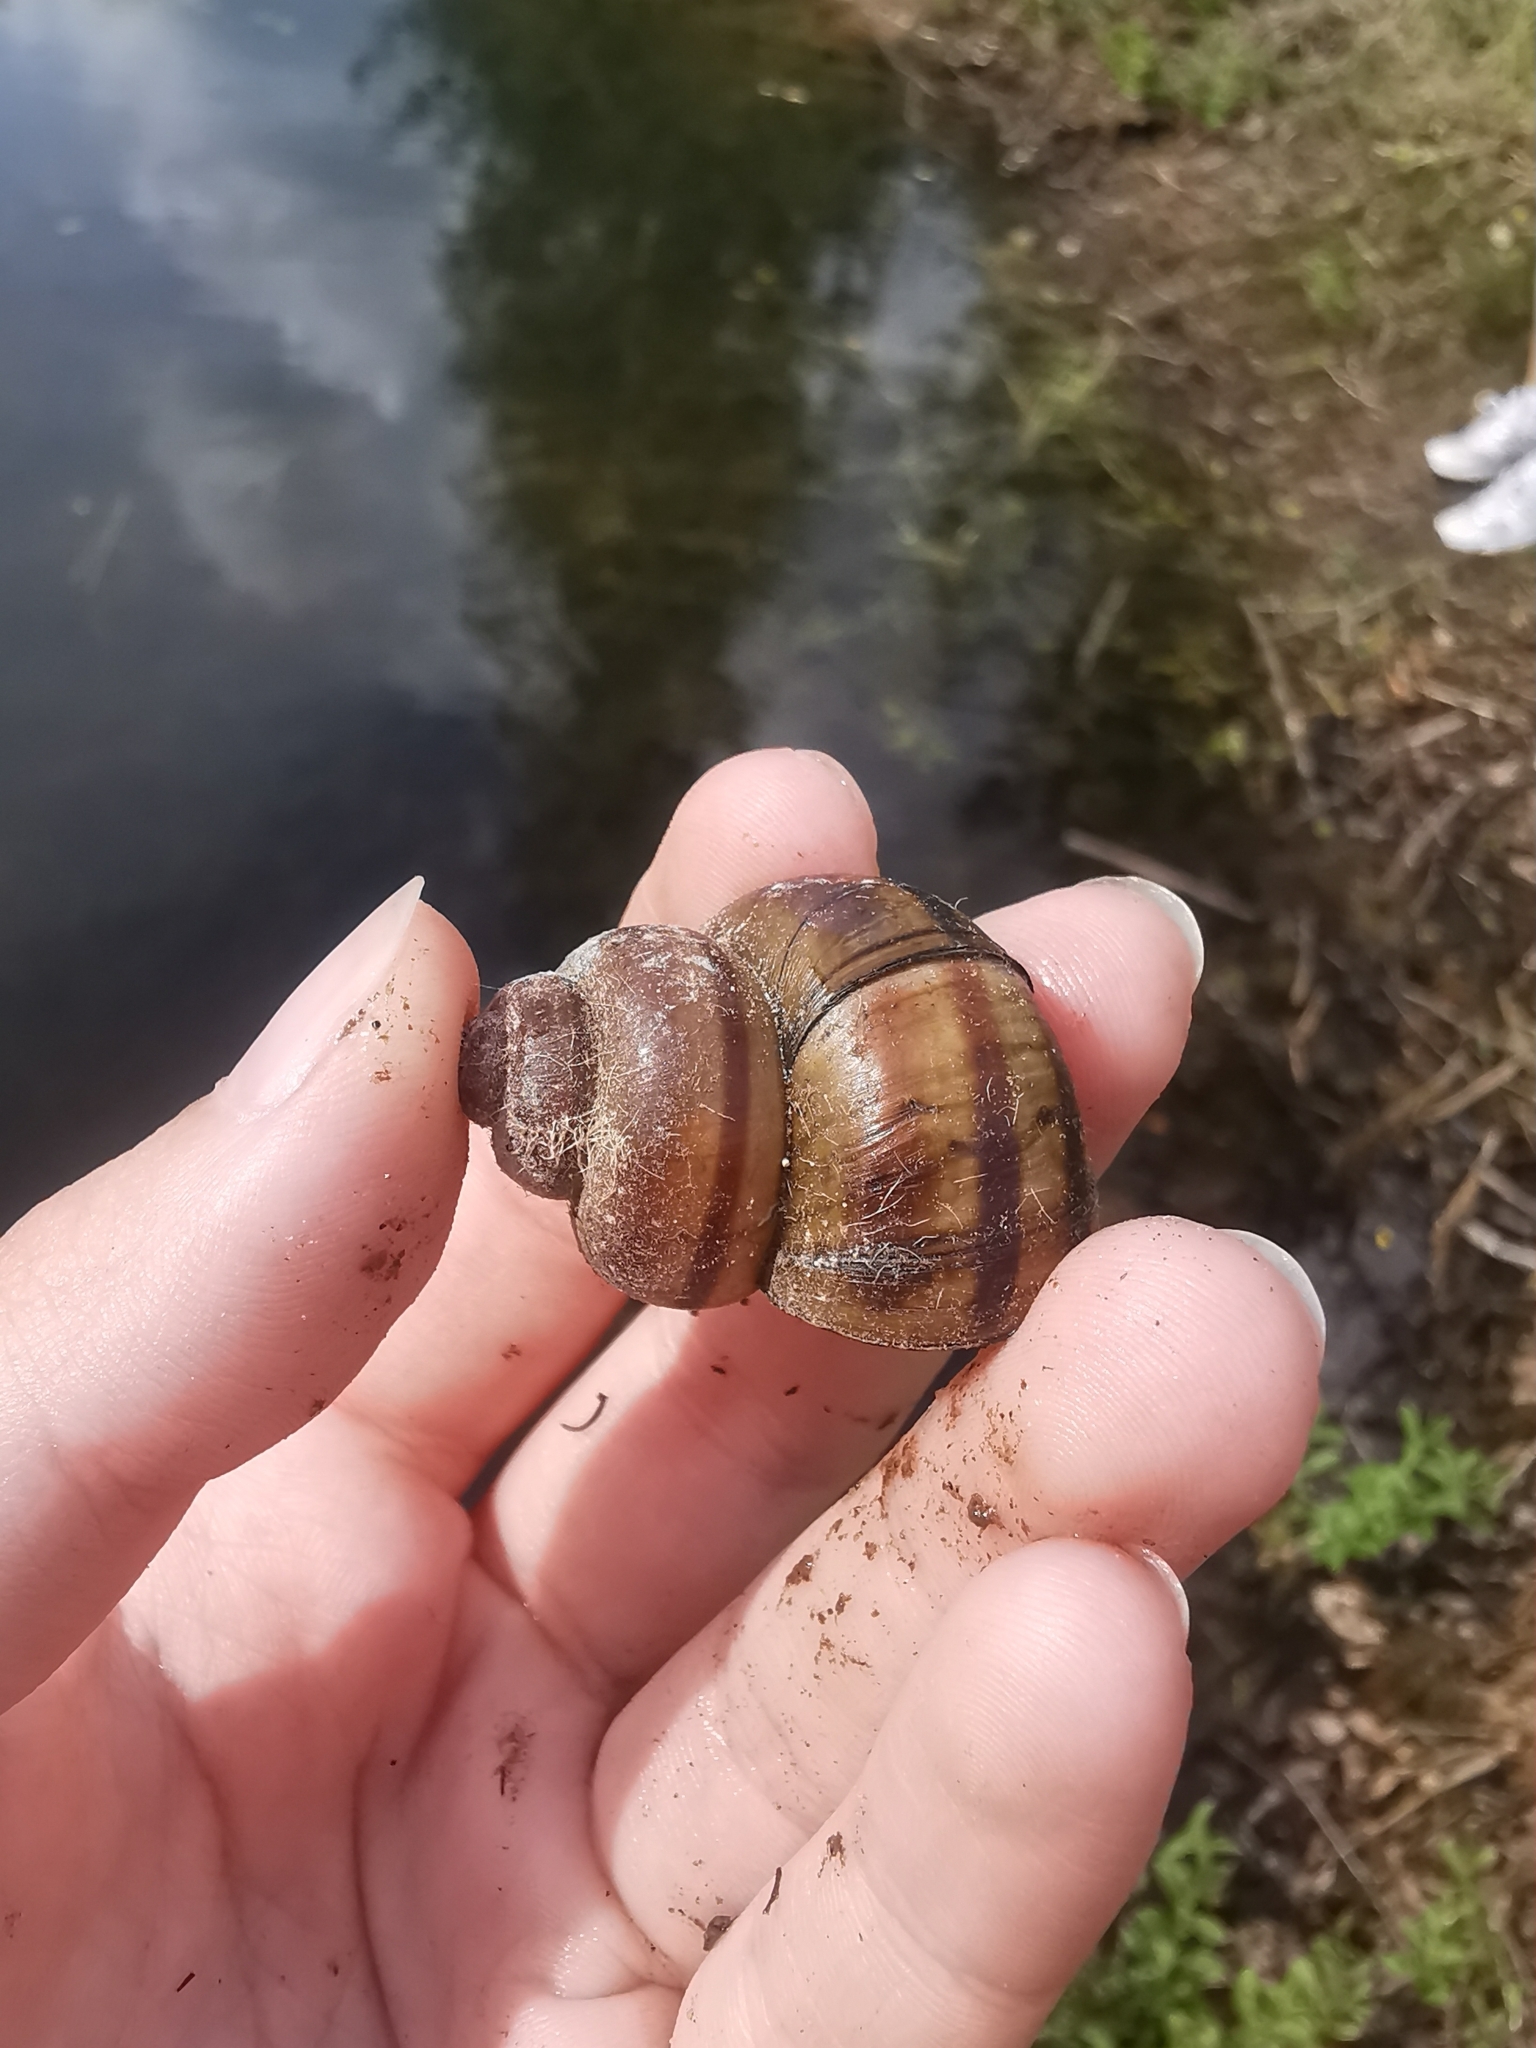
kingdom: Animalia
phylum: Mollusca
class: Gastropoda
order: Architaenioglossa
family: Viviparidae
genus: Viviparus
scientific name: Viviparus contectus
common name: Lister's river snail
